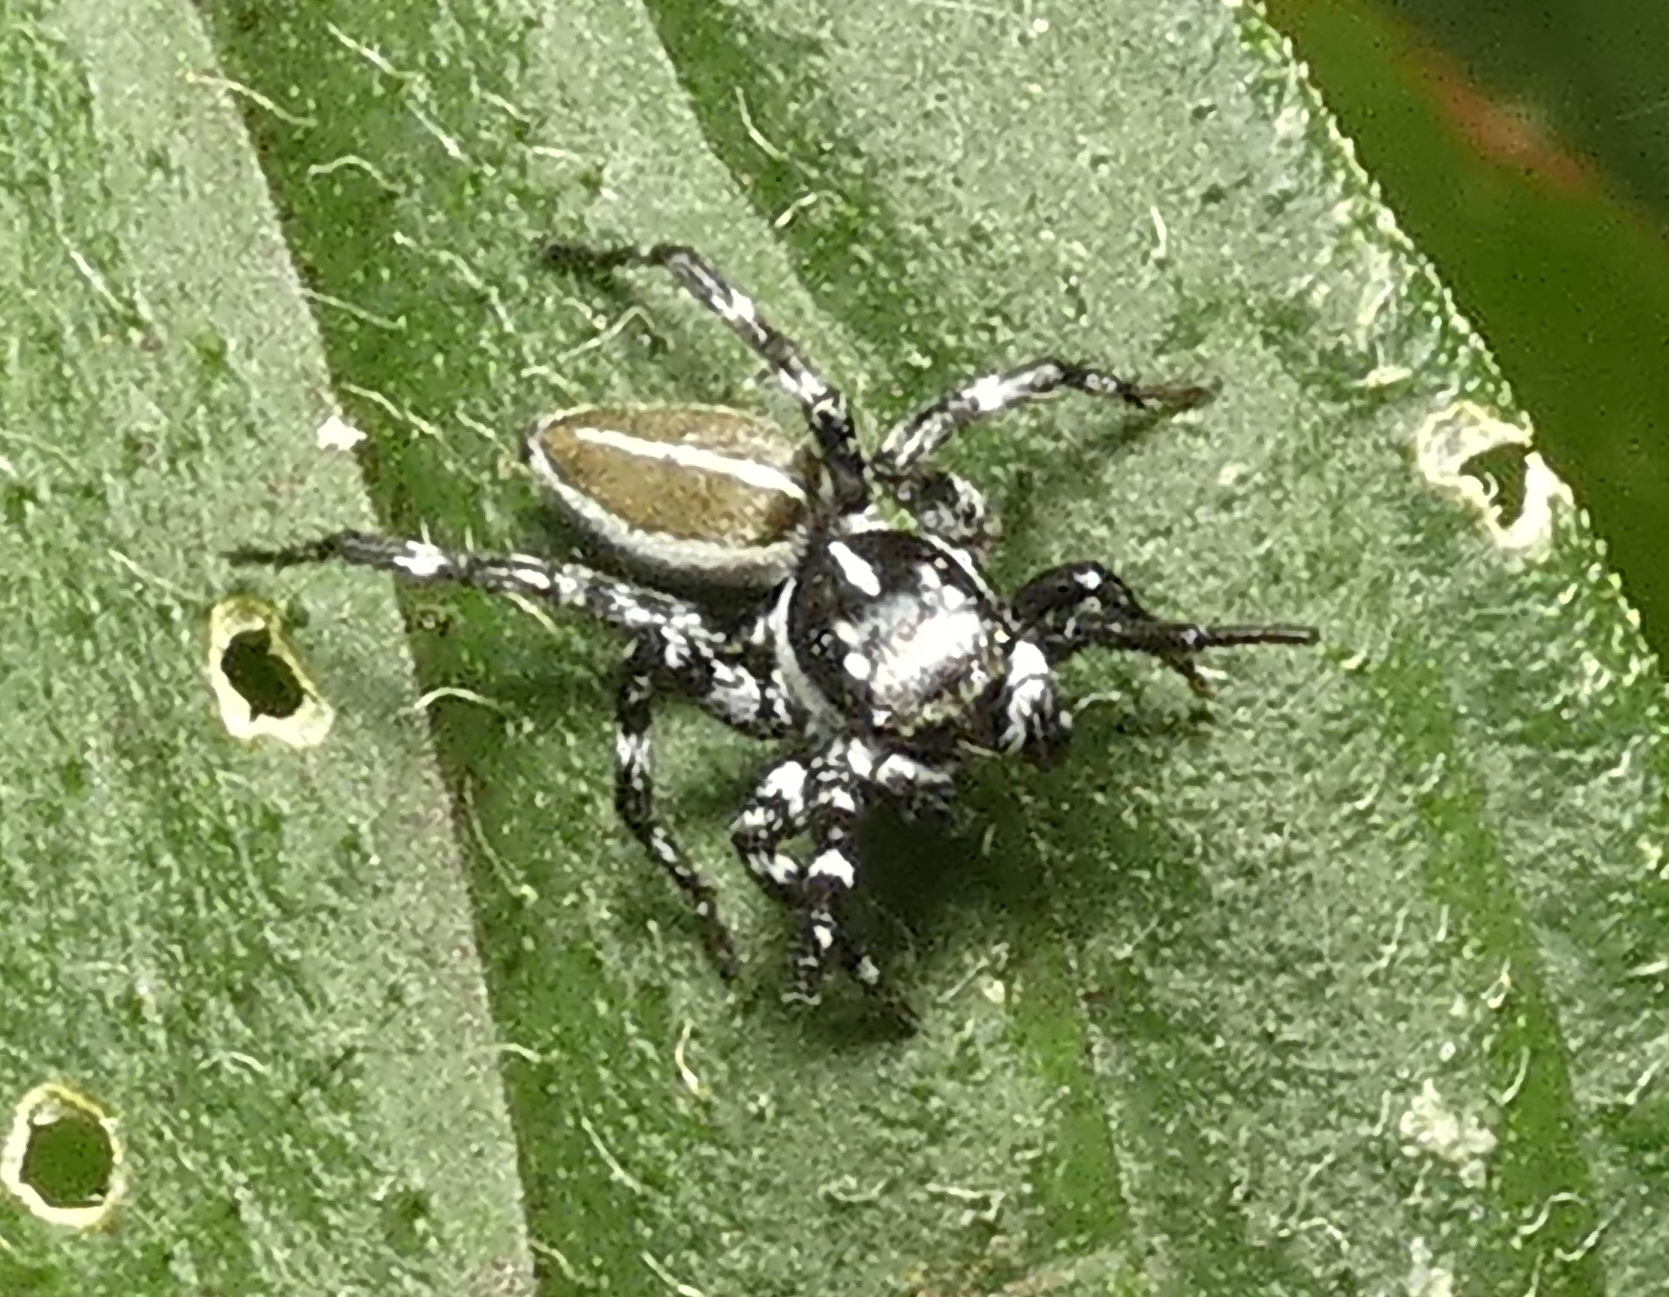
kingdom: Animalia
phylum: Arthropoda
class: Arachnida
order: Araneae
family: Salticidae
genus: Phiale
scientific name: Phiale tristis
